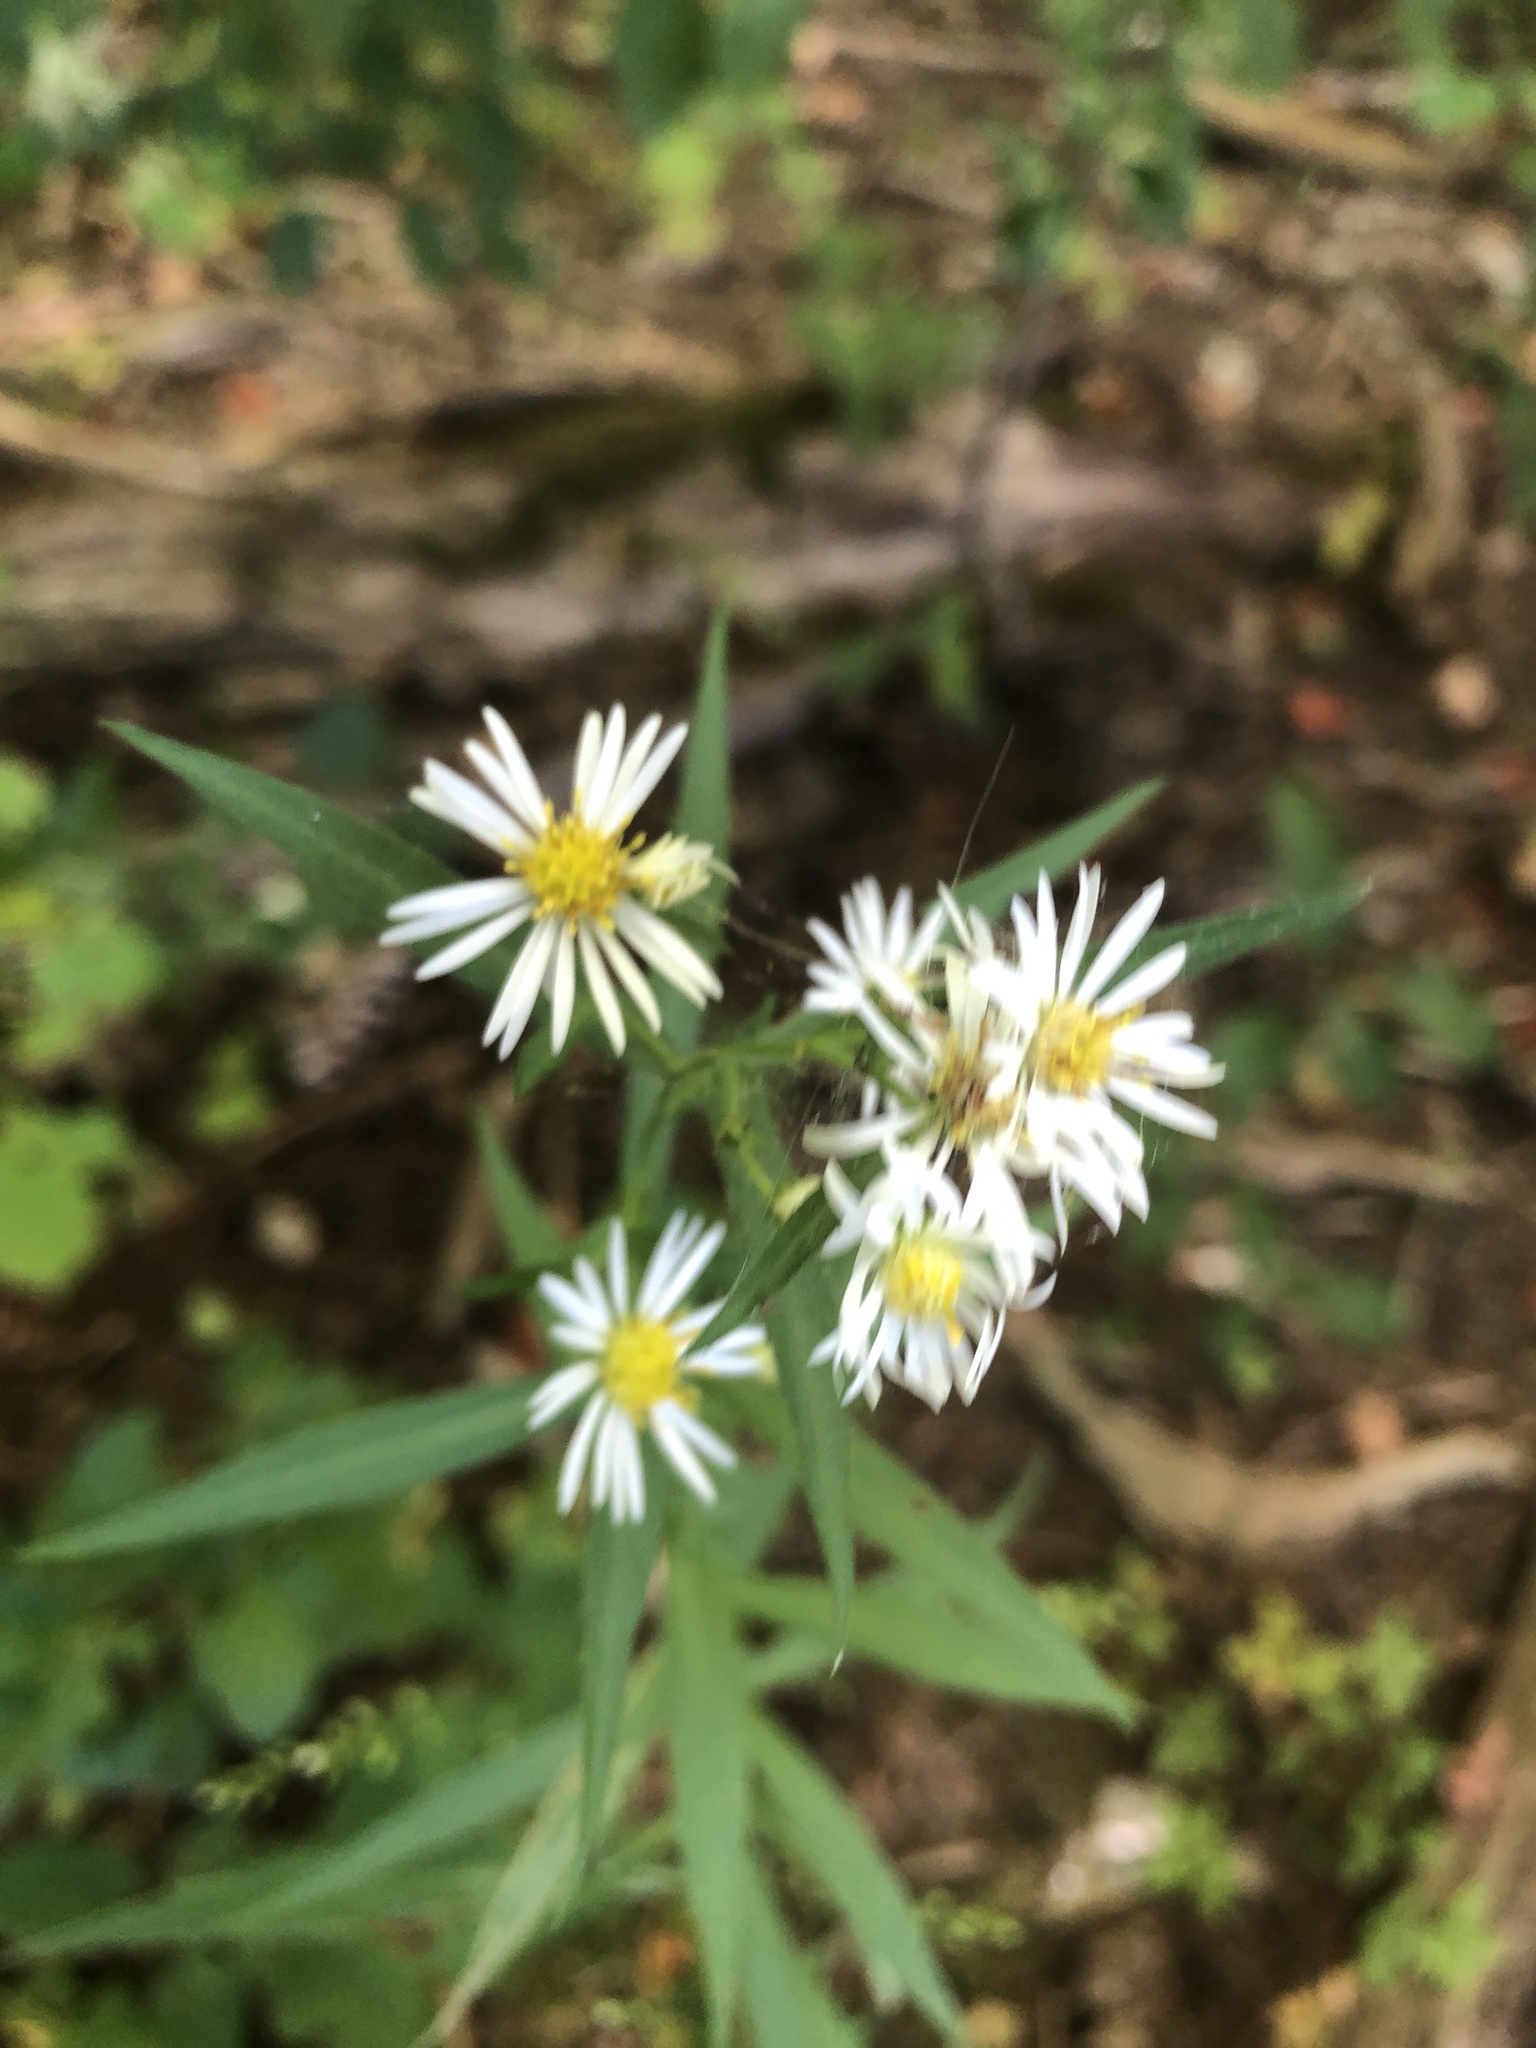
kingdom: Plantae
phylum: Tracheophyta
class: Magnoliopsida
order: Asterales
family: Asteraceae
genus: Symphyotrichum
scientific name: Symphyotrichum lanceolatum
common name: Panicled aster
